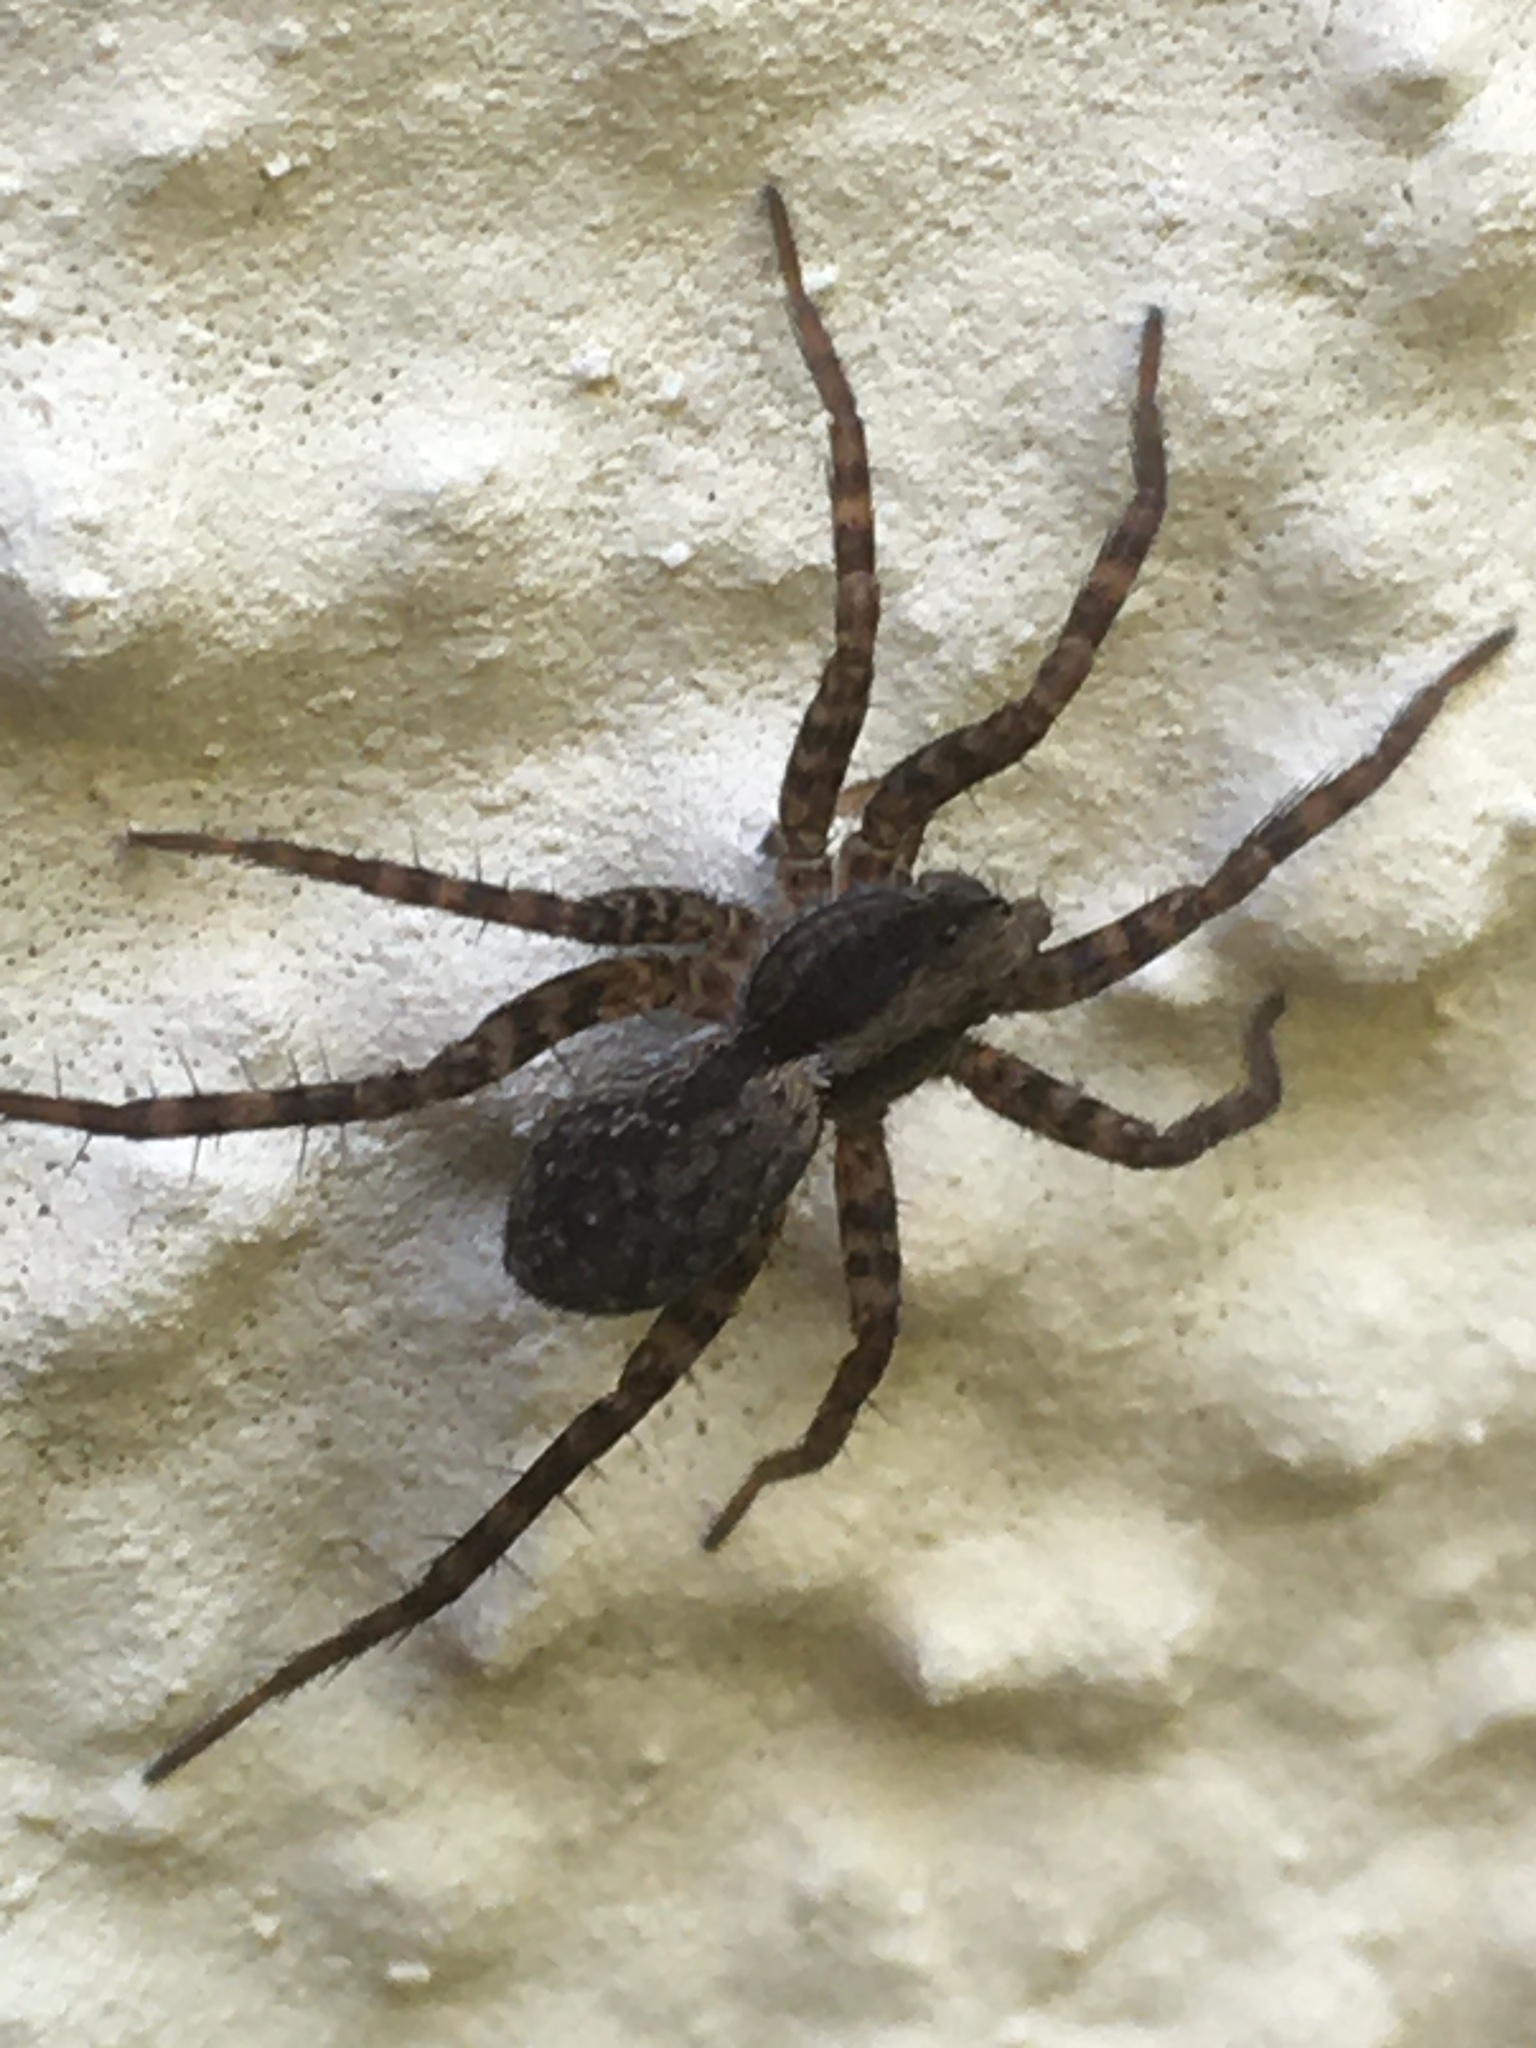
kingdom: Animalia
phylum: Arthropoda
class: Arachnida
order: Araneae
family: Lycosidae
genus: Pardosa
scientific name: Pardosa
